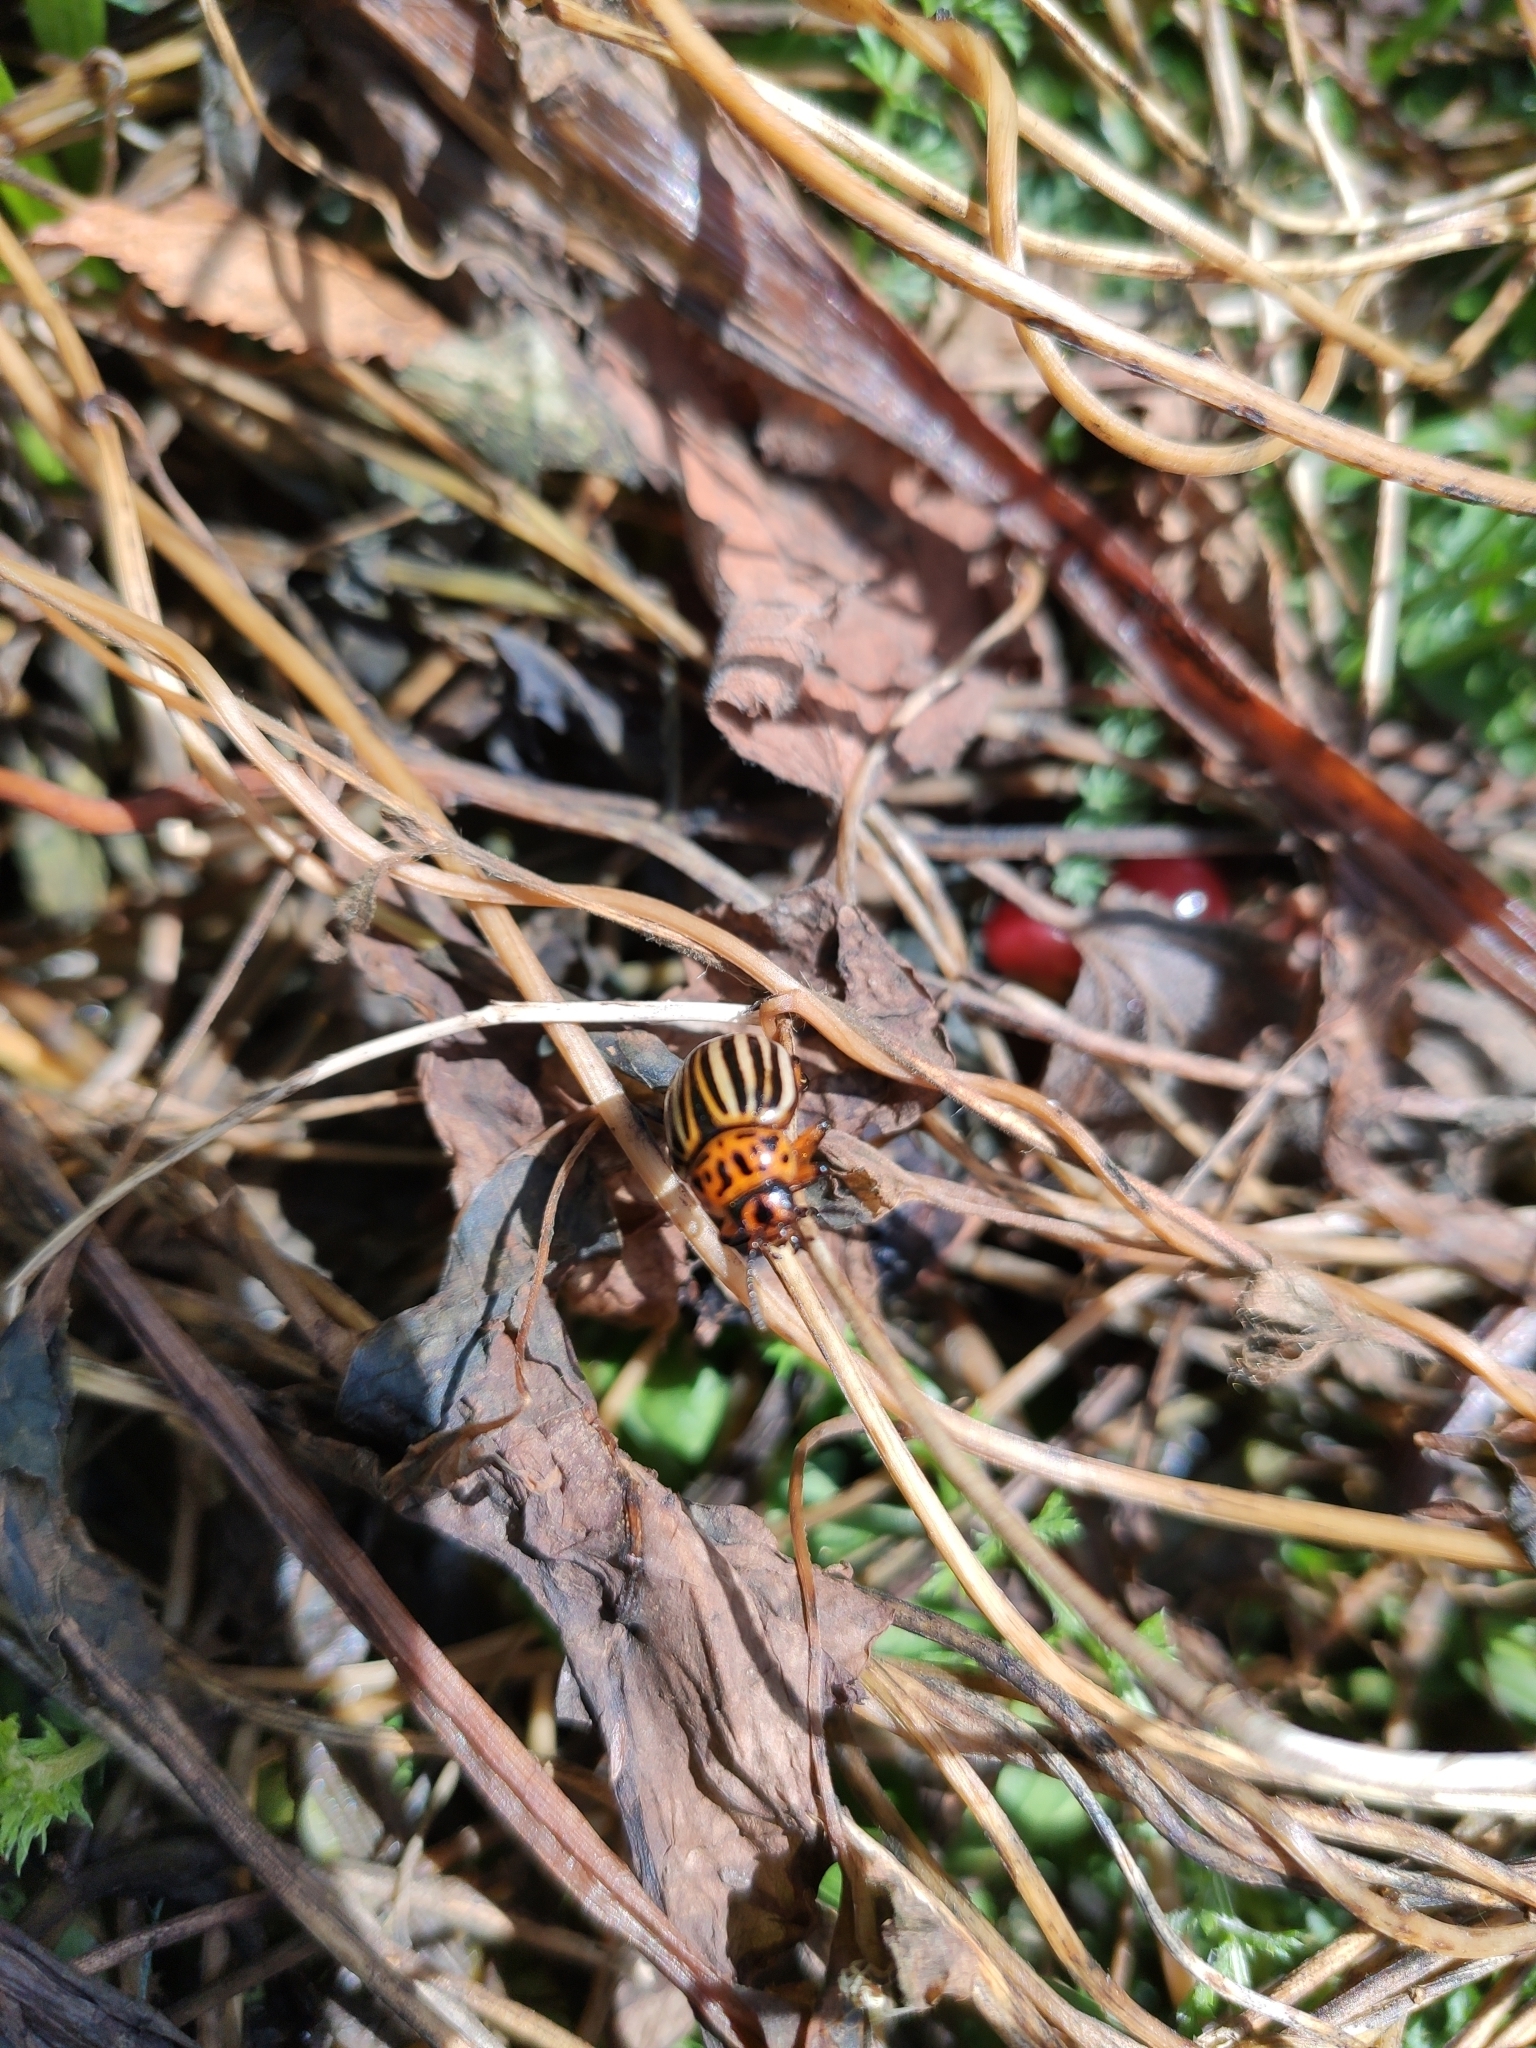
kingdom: Animalia
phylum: Arthropoda
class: Insecta
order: Coleoptera
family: Chrysomelidae
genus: Leptinotarsa
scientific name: Leptinotarsa decemlineata
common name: Colorado potato beetle
